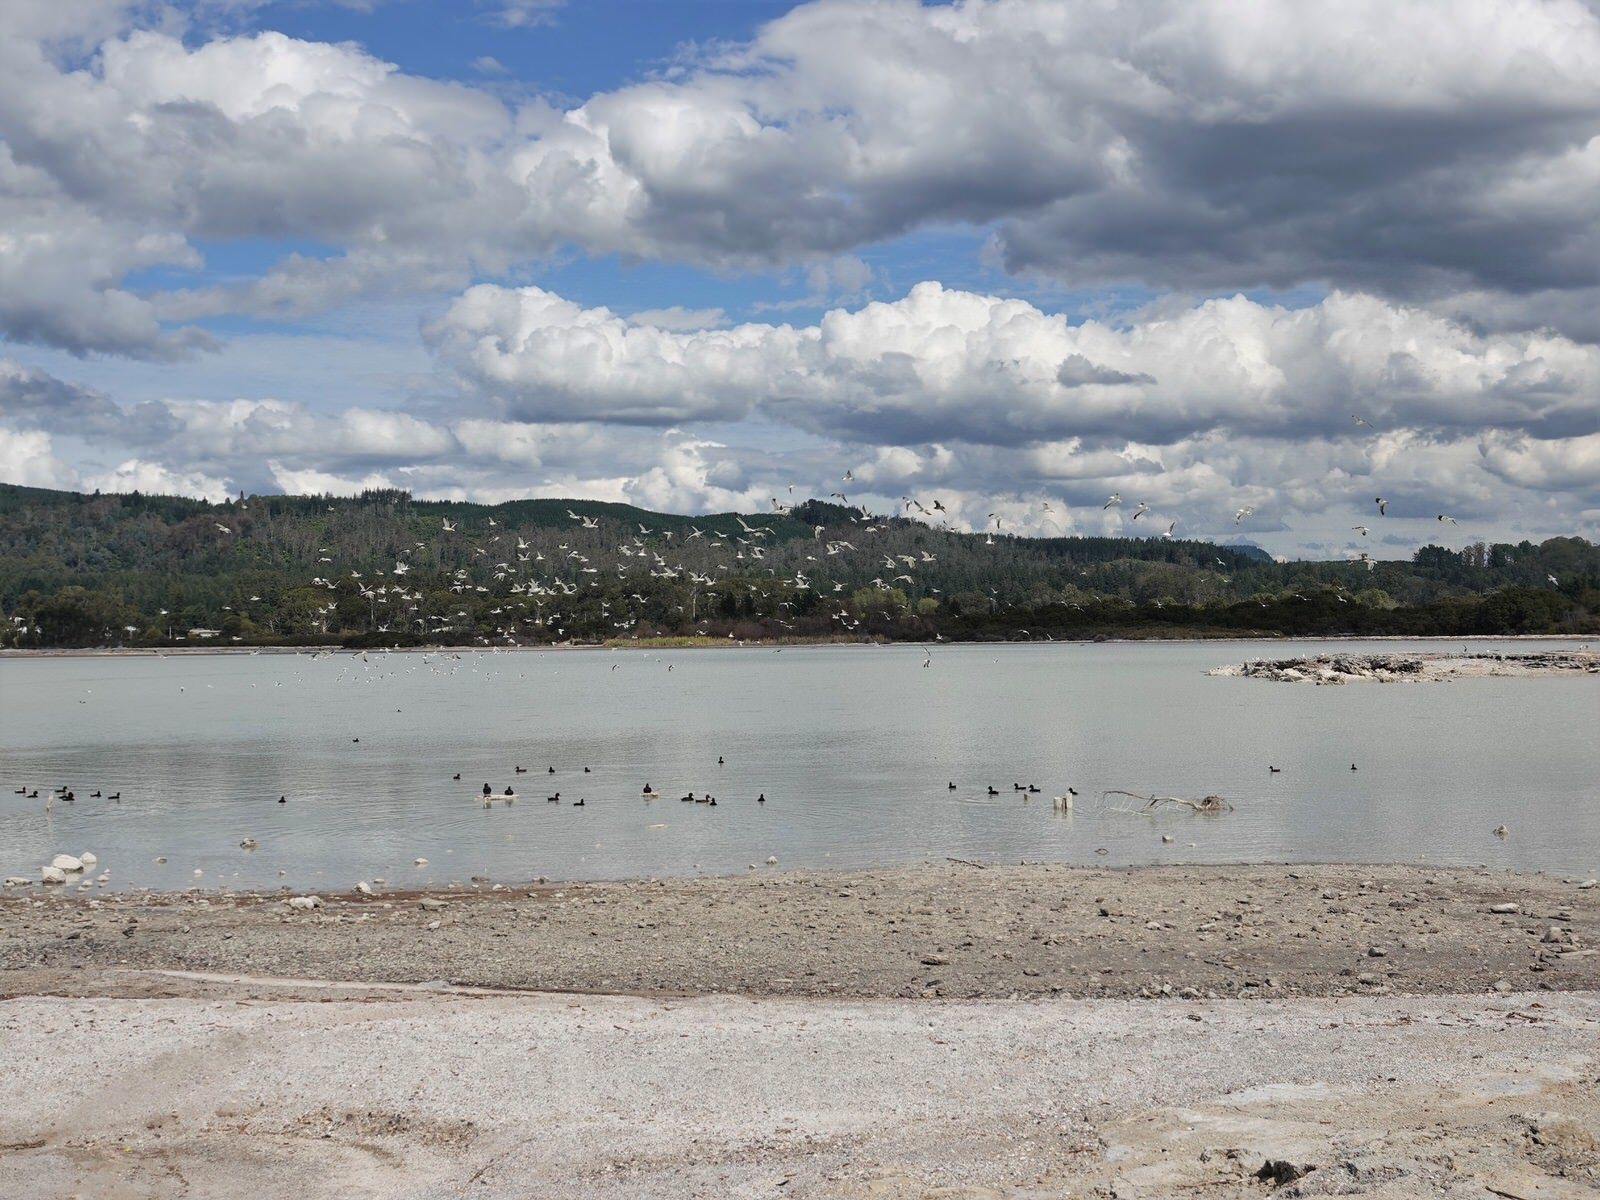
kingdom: Animalia
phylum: Chordata
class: Aves
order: Charadriiformes
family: Laridae
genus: Larus
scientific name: Larus dominicanus
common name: Kelp gull
